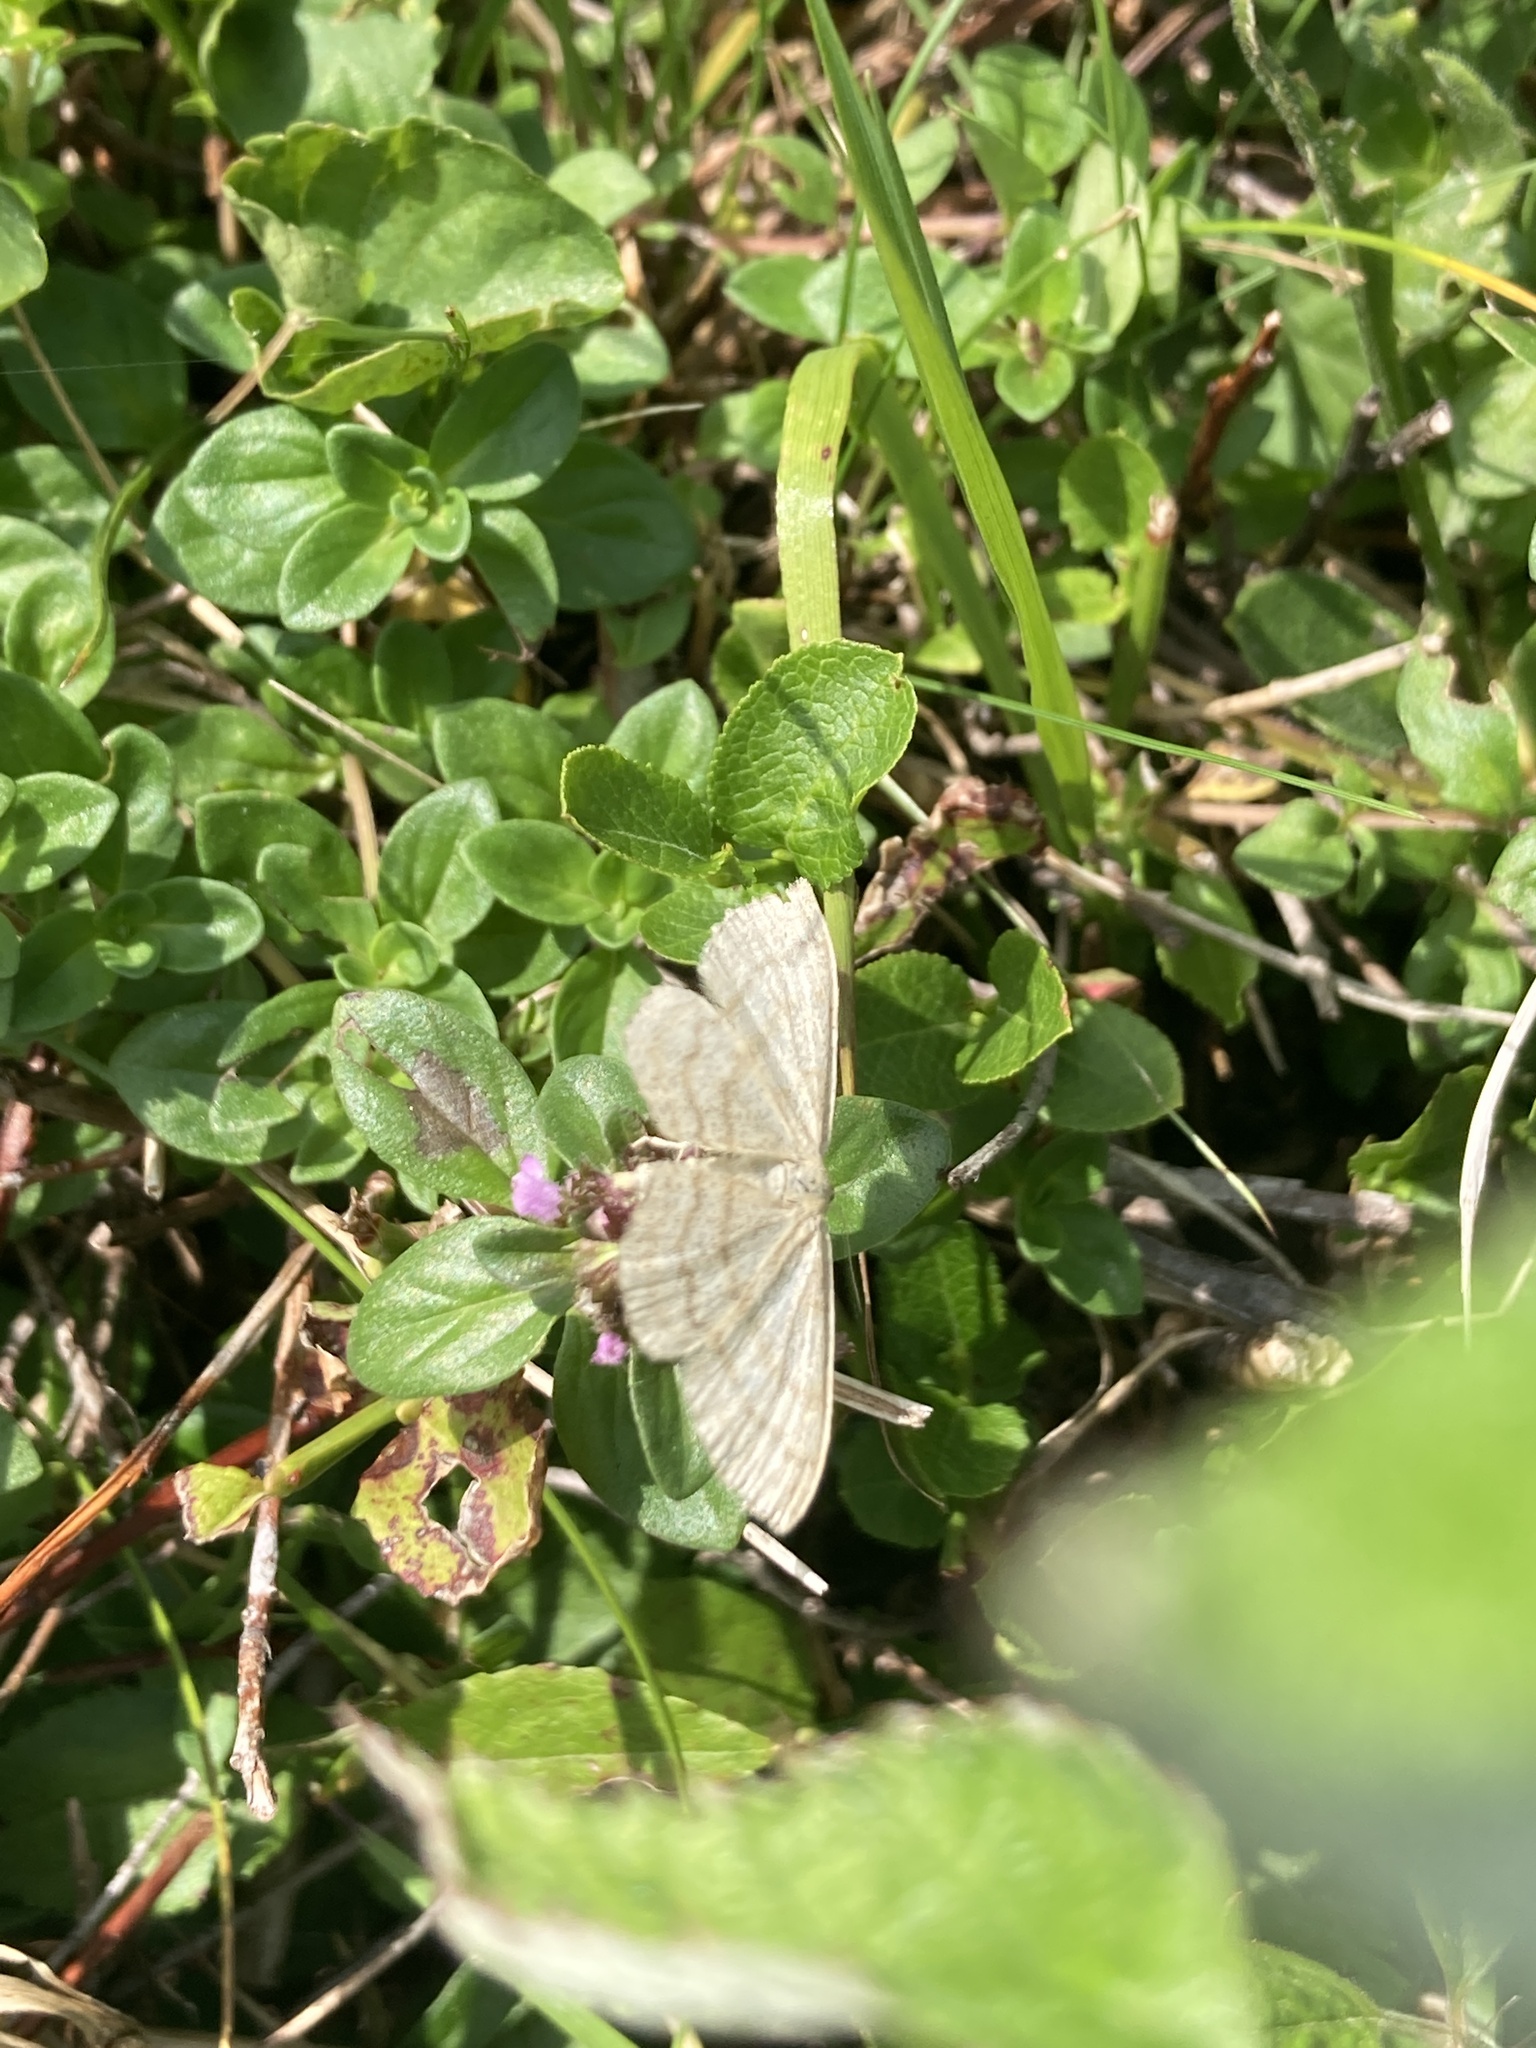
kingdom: Animalia
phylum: Arthropoda
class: Insecta
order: Lepidoptera
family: Geometridae
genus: Scopula
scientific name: Scopula ternata
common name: Smoky wave
